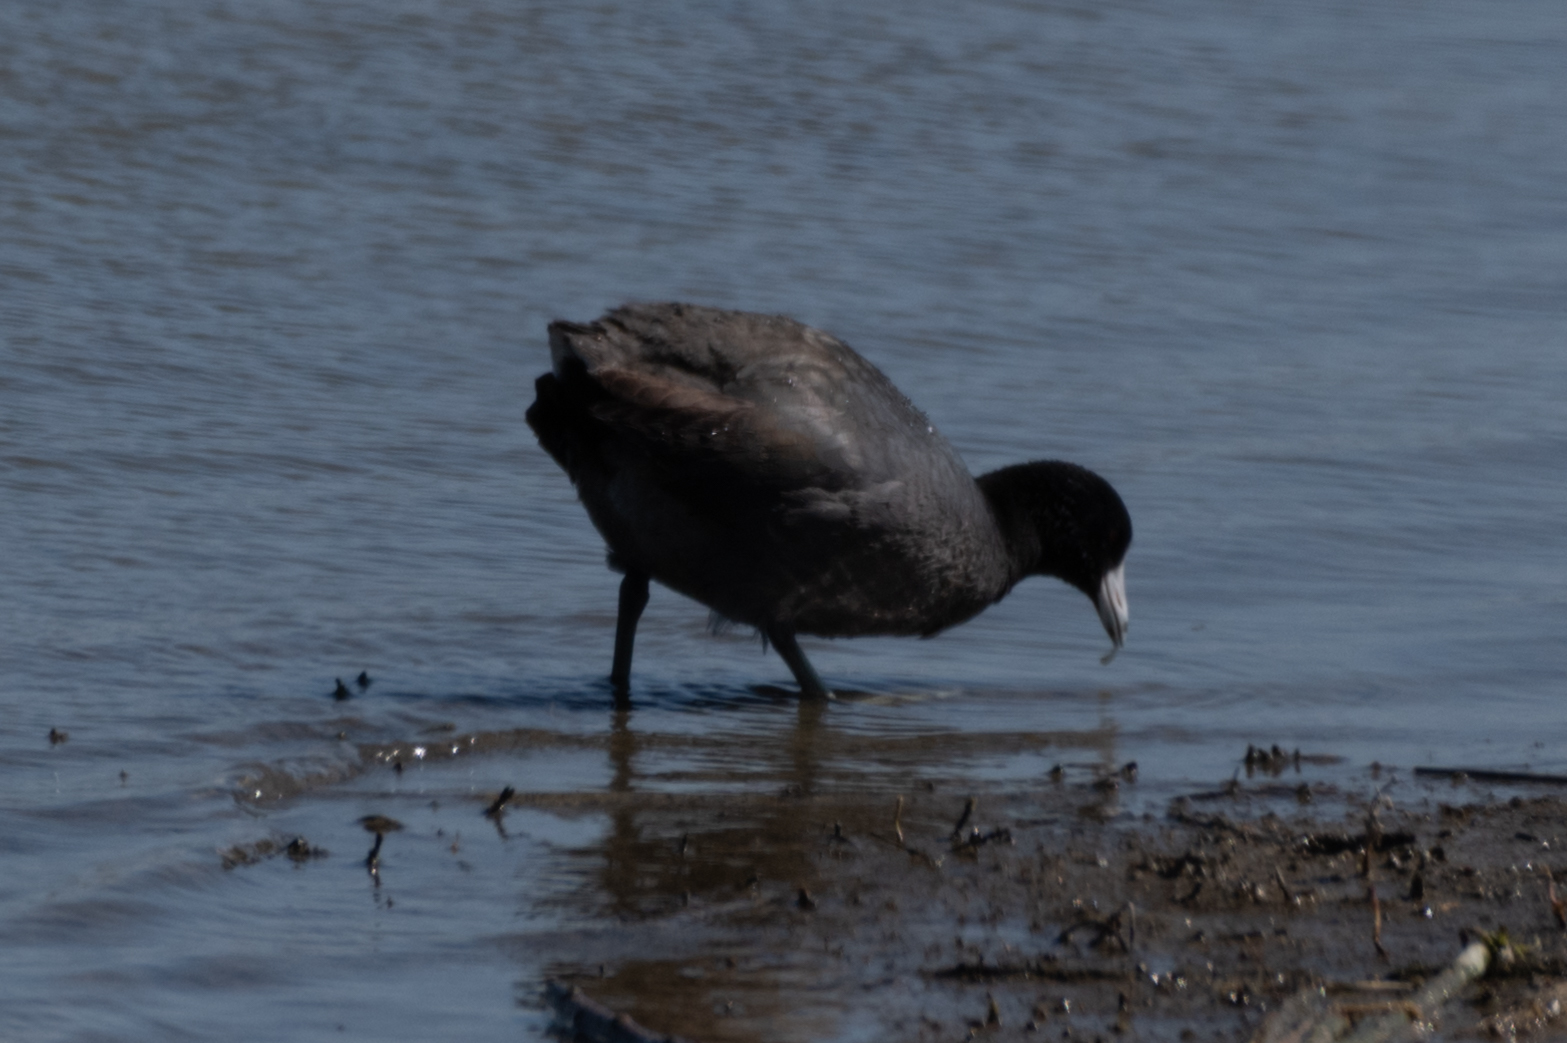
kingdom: Animalia
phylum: Chordata
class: Aves
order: Gruiformes
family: Rallidae
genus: Fulica
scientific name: Fulica americana
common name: American coot
